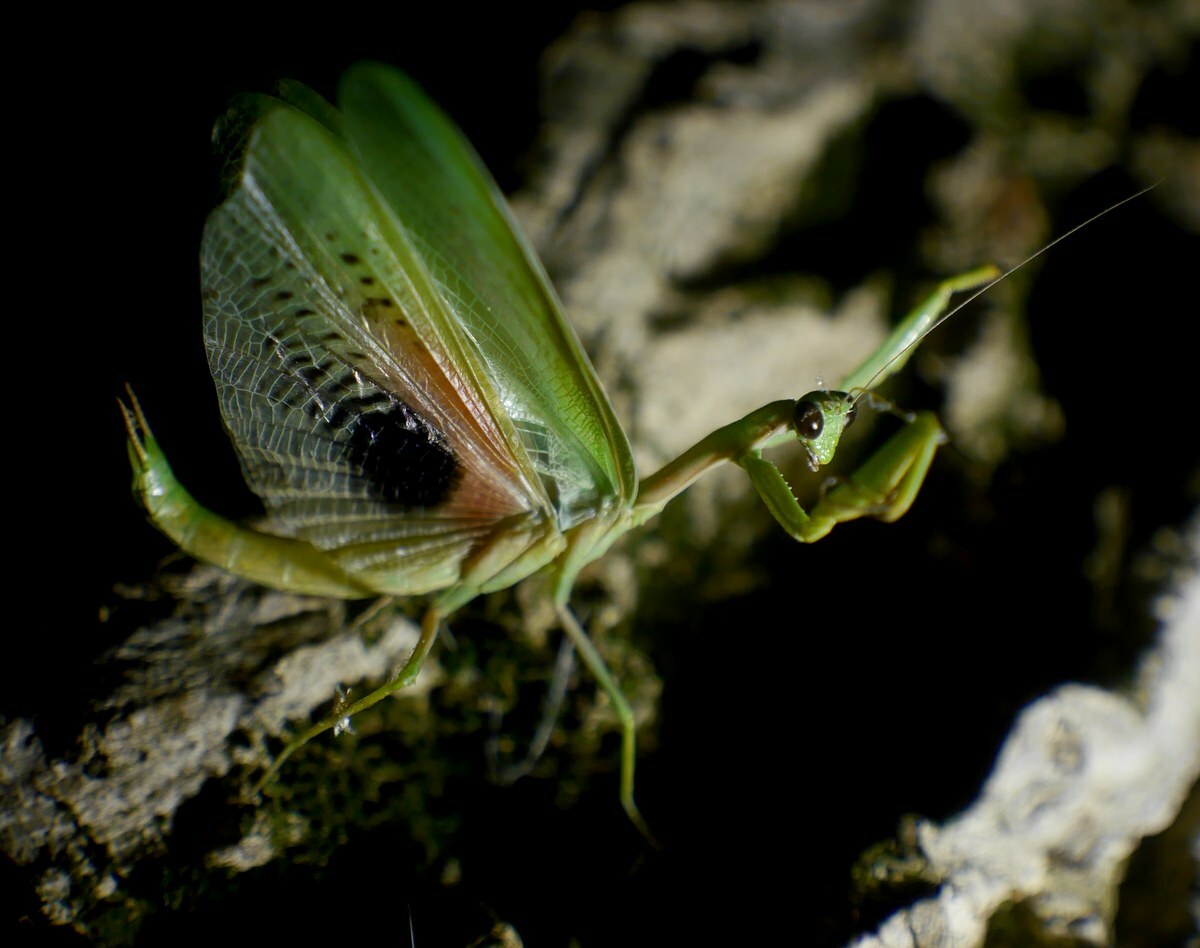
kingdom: Animalia
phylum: Arthropoda
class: Insecta
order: Mantodea
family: Eremiaphilidae
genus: Iris
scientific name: Iris polystictica
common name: Dot-winged mantis
